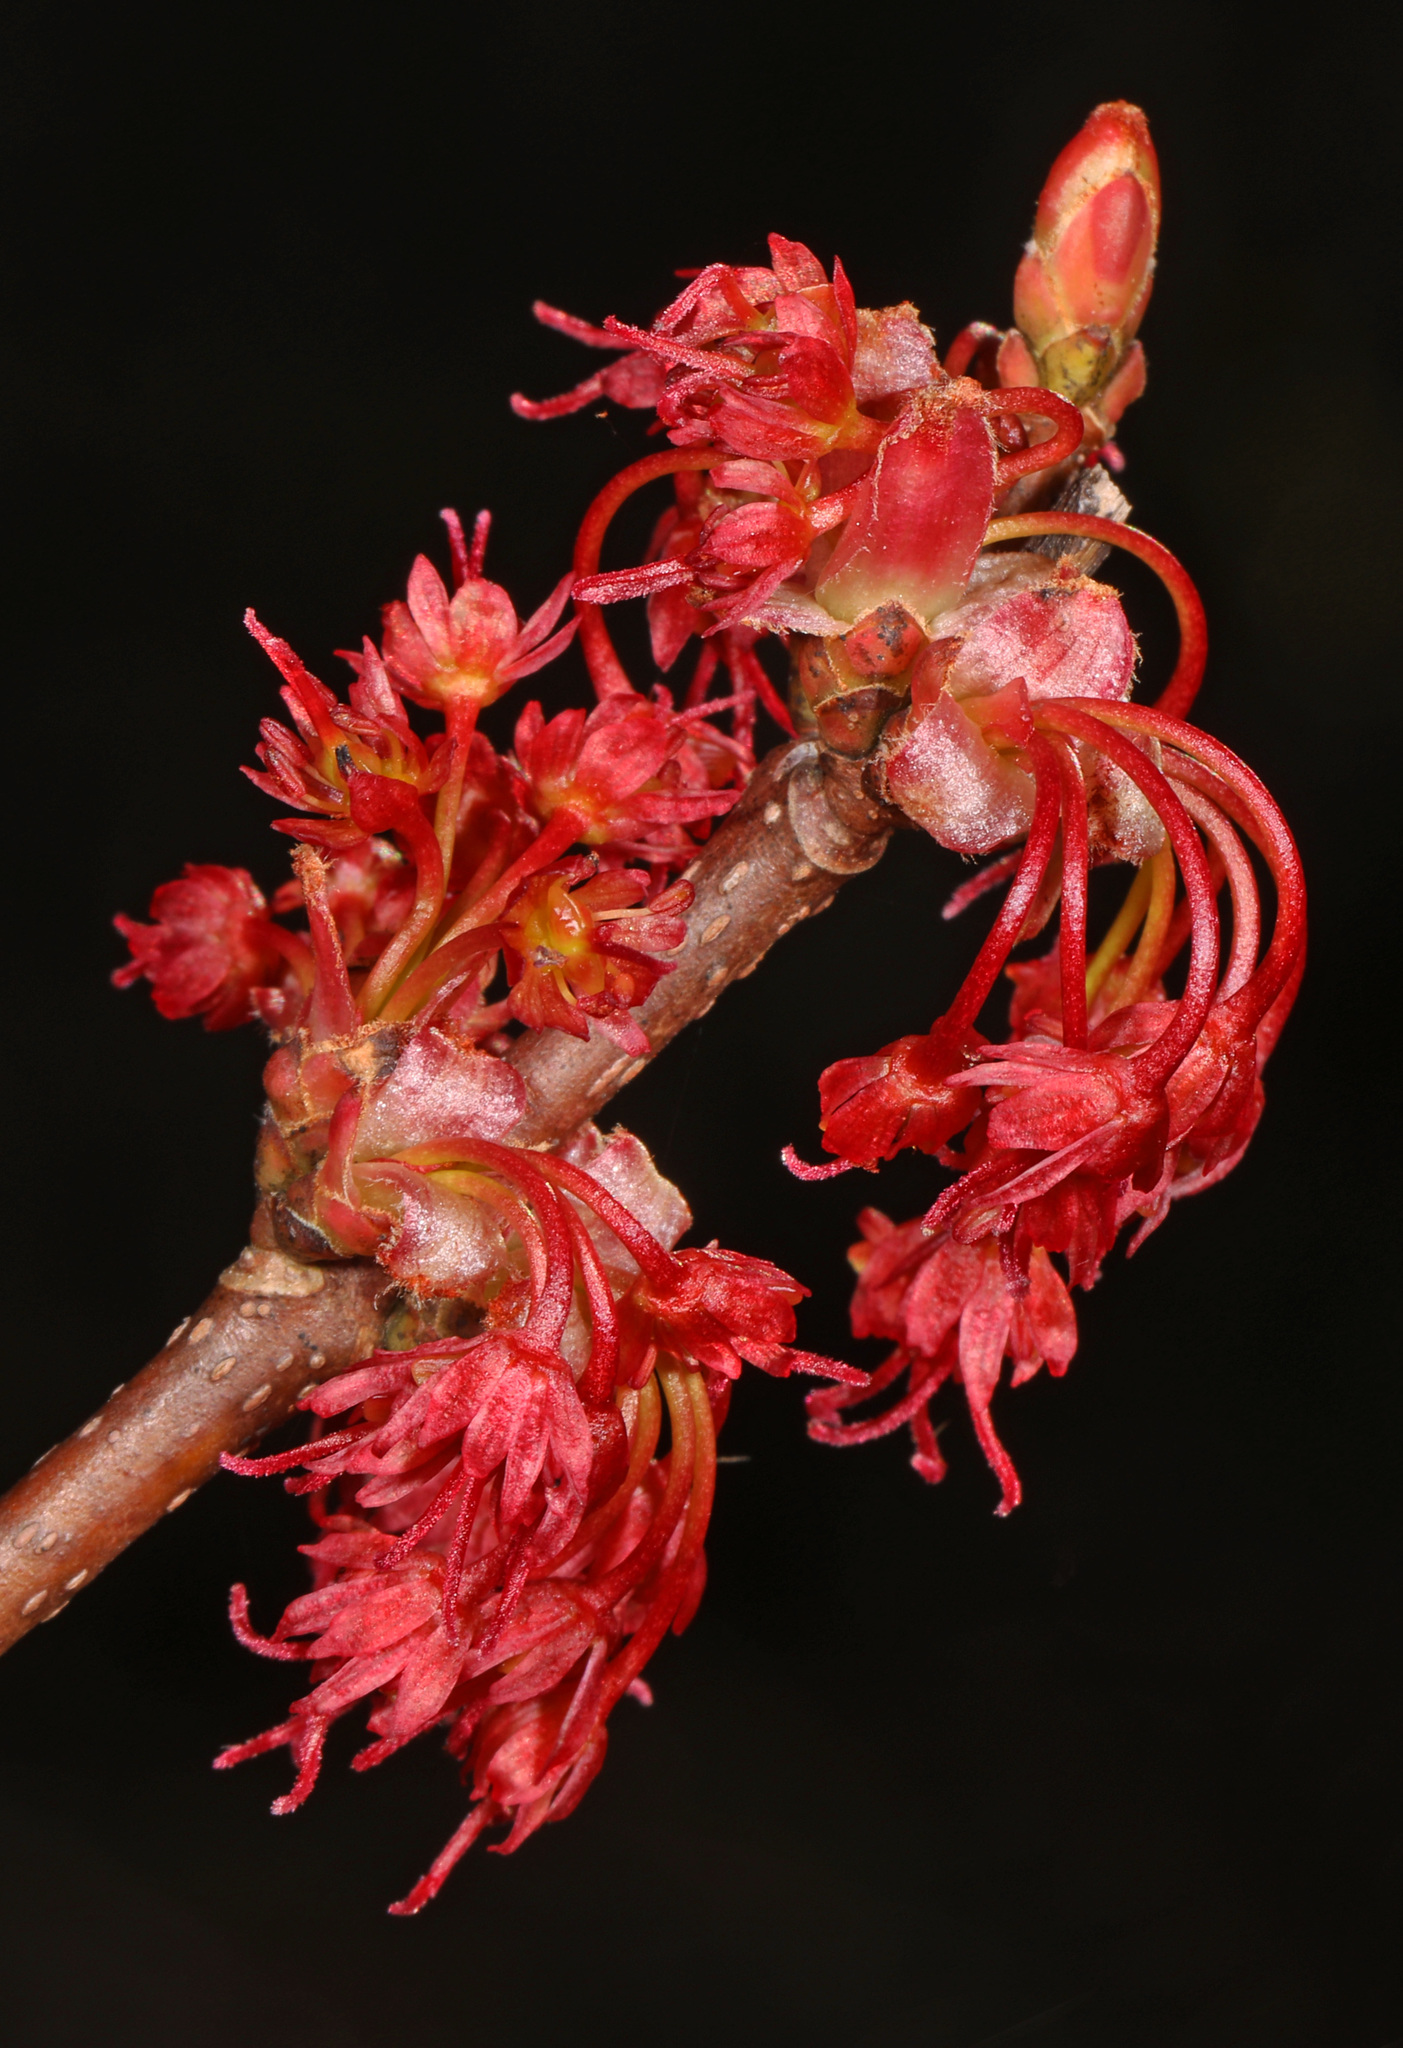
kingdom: Plantae
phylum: Tracheophyta
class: Magnoliopsida
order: Sapindales
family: Sapindaceae
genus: Acer
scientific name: Acer rubrum
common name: Red maple
